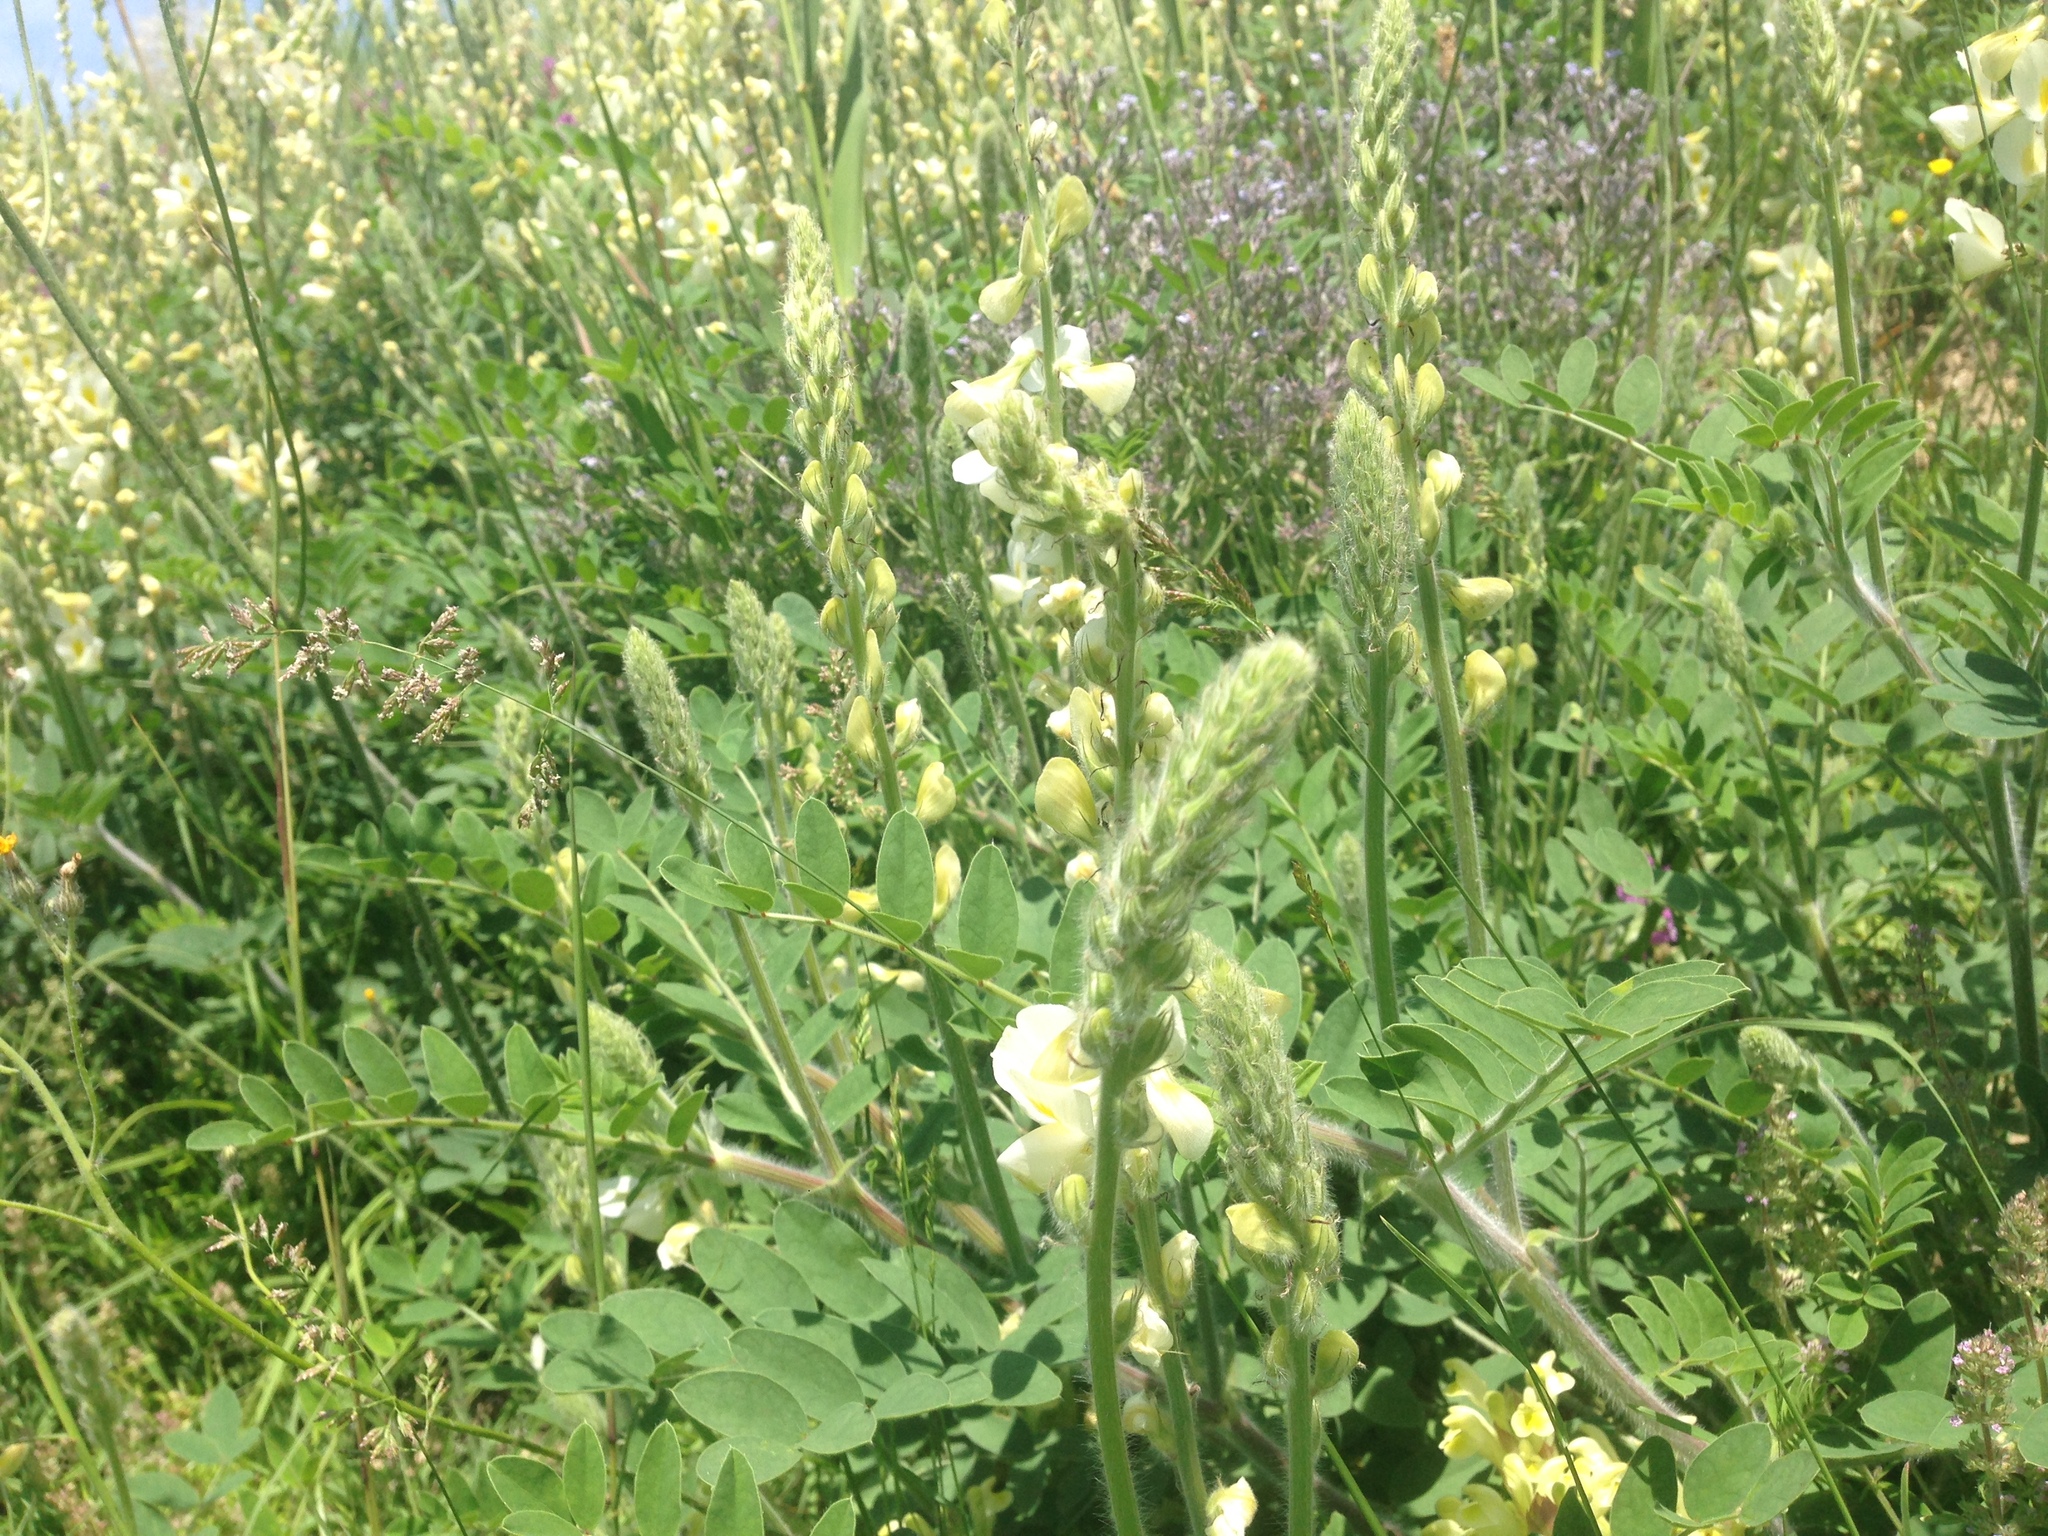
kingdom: Plantae
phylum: Tracheophyta
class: Magnoliopsida
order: Fabales
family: Fabaceae
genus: Onobrychis
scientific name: Onobrychis vassilczenkoi
